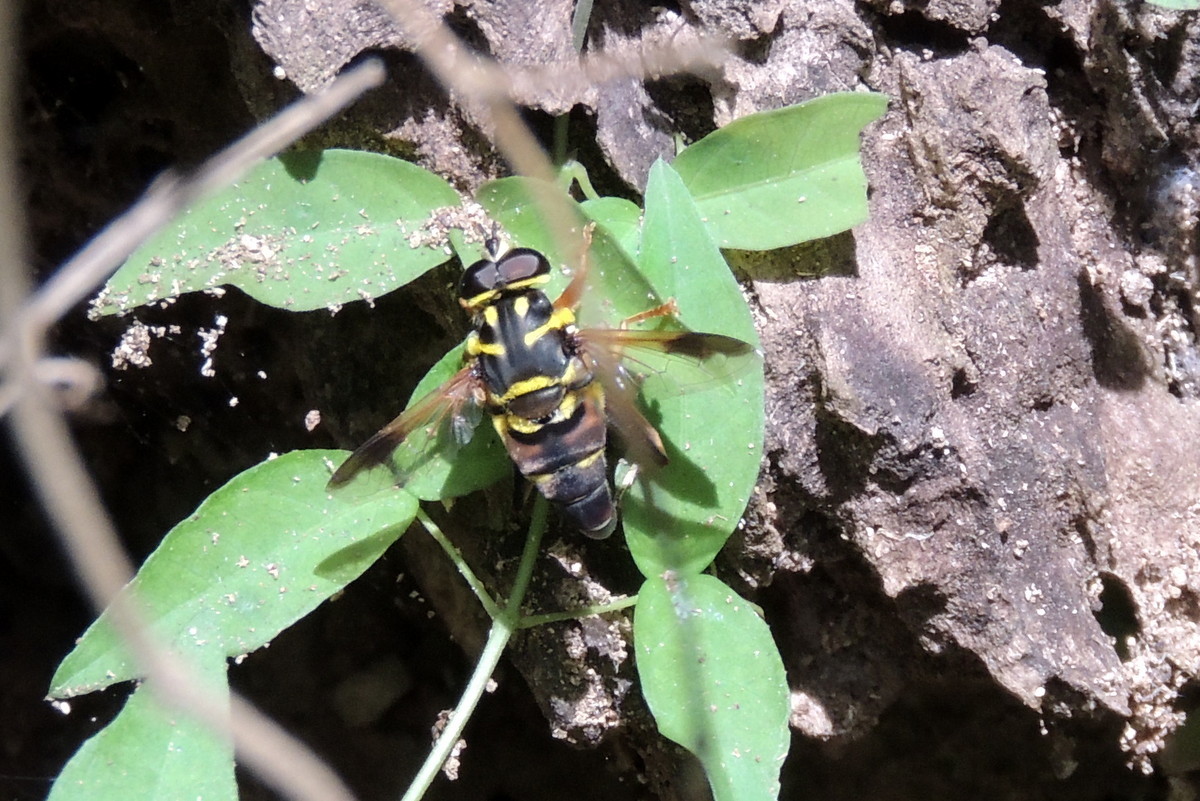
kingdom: Animalia
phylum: Arthropoda
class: Insecta
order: Diptera
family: Syrphidae
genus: Meromacrus
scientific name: Meromacrus acutus
